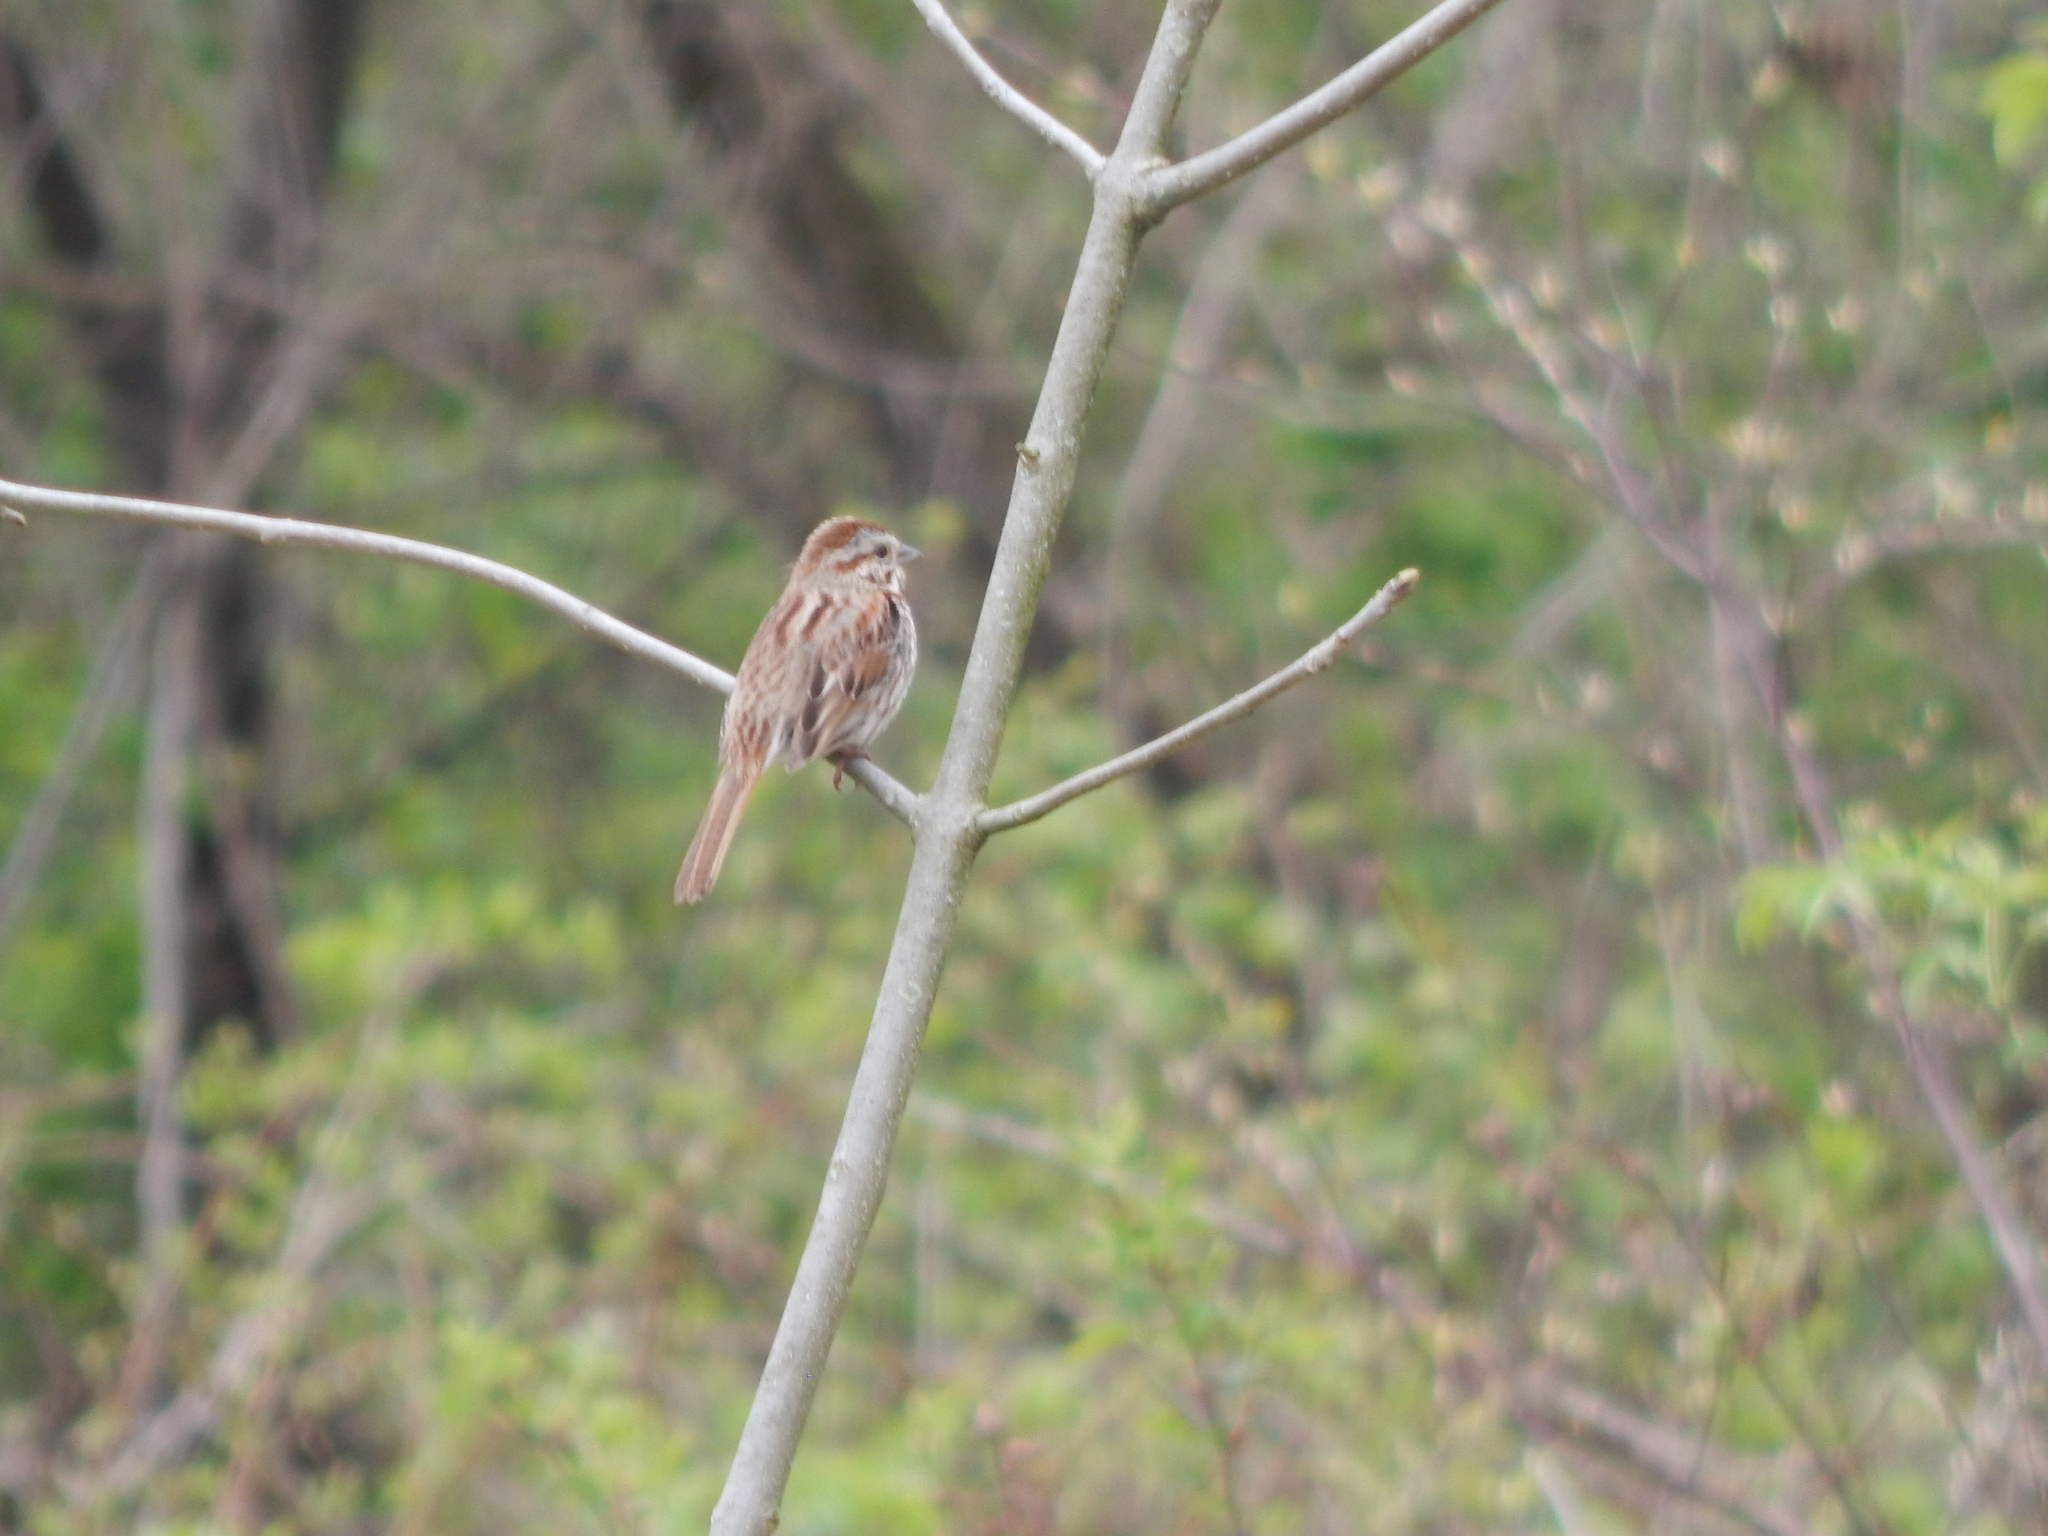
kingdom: Animalia
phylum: Chordata
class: Aves
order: Passeriformes
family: Passerellidae
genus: Melospiza
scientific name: Melospiza melodia
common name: Song sparrow
